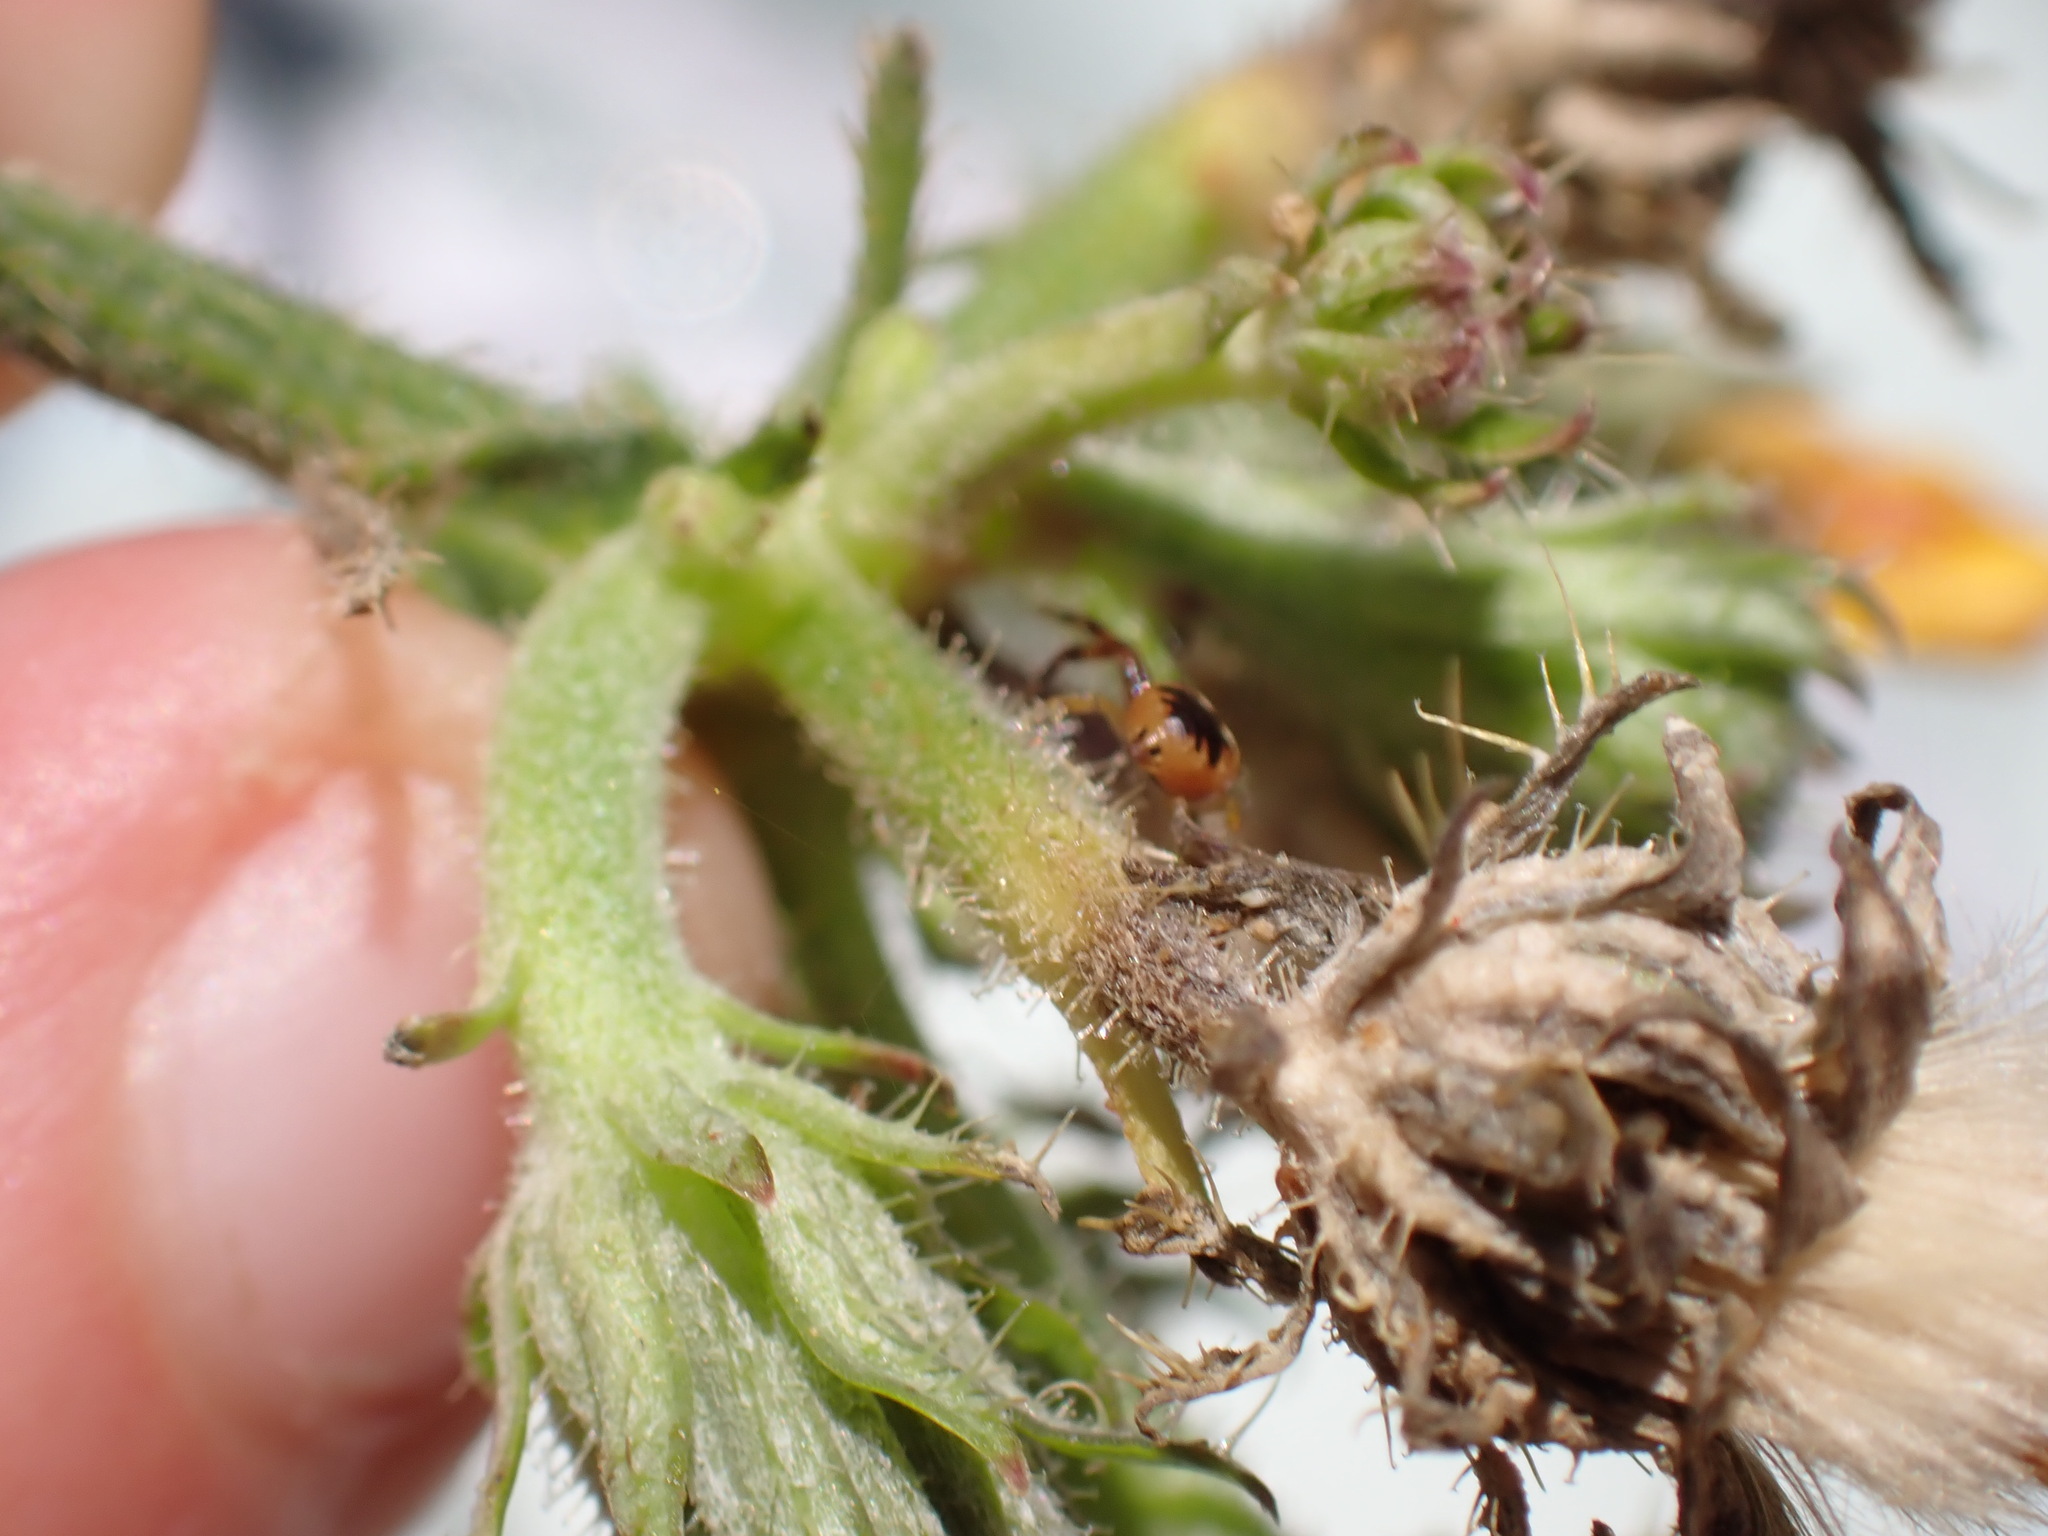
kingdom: Animalia
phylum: Arthropoda
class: Arachnida
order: Araneae
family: Thomisidae
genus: Synema
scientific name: Synema globosum
